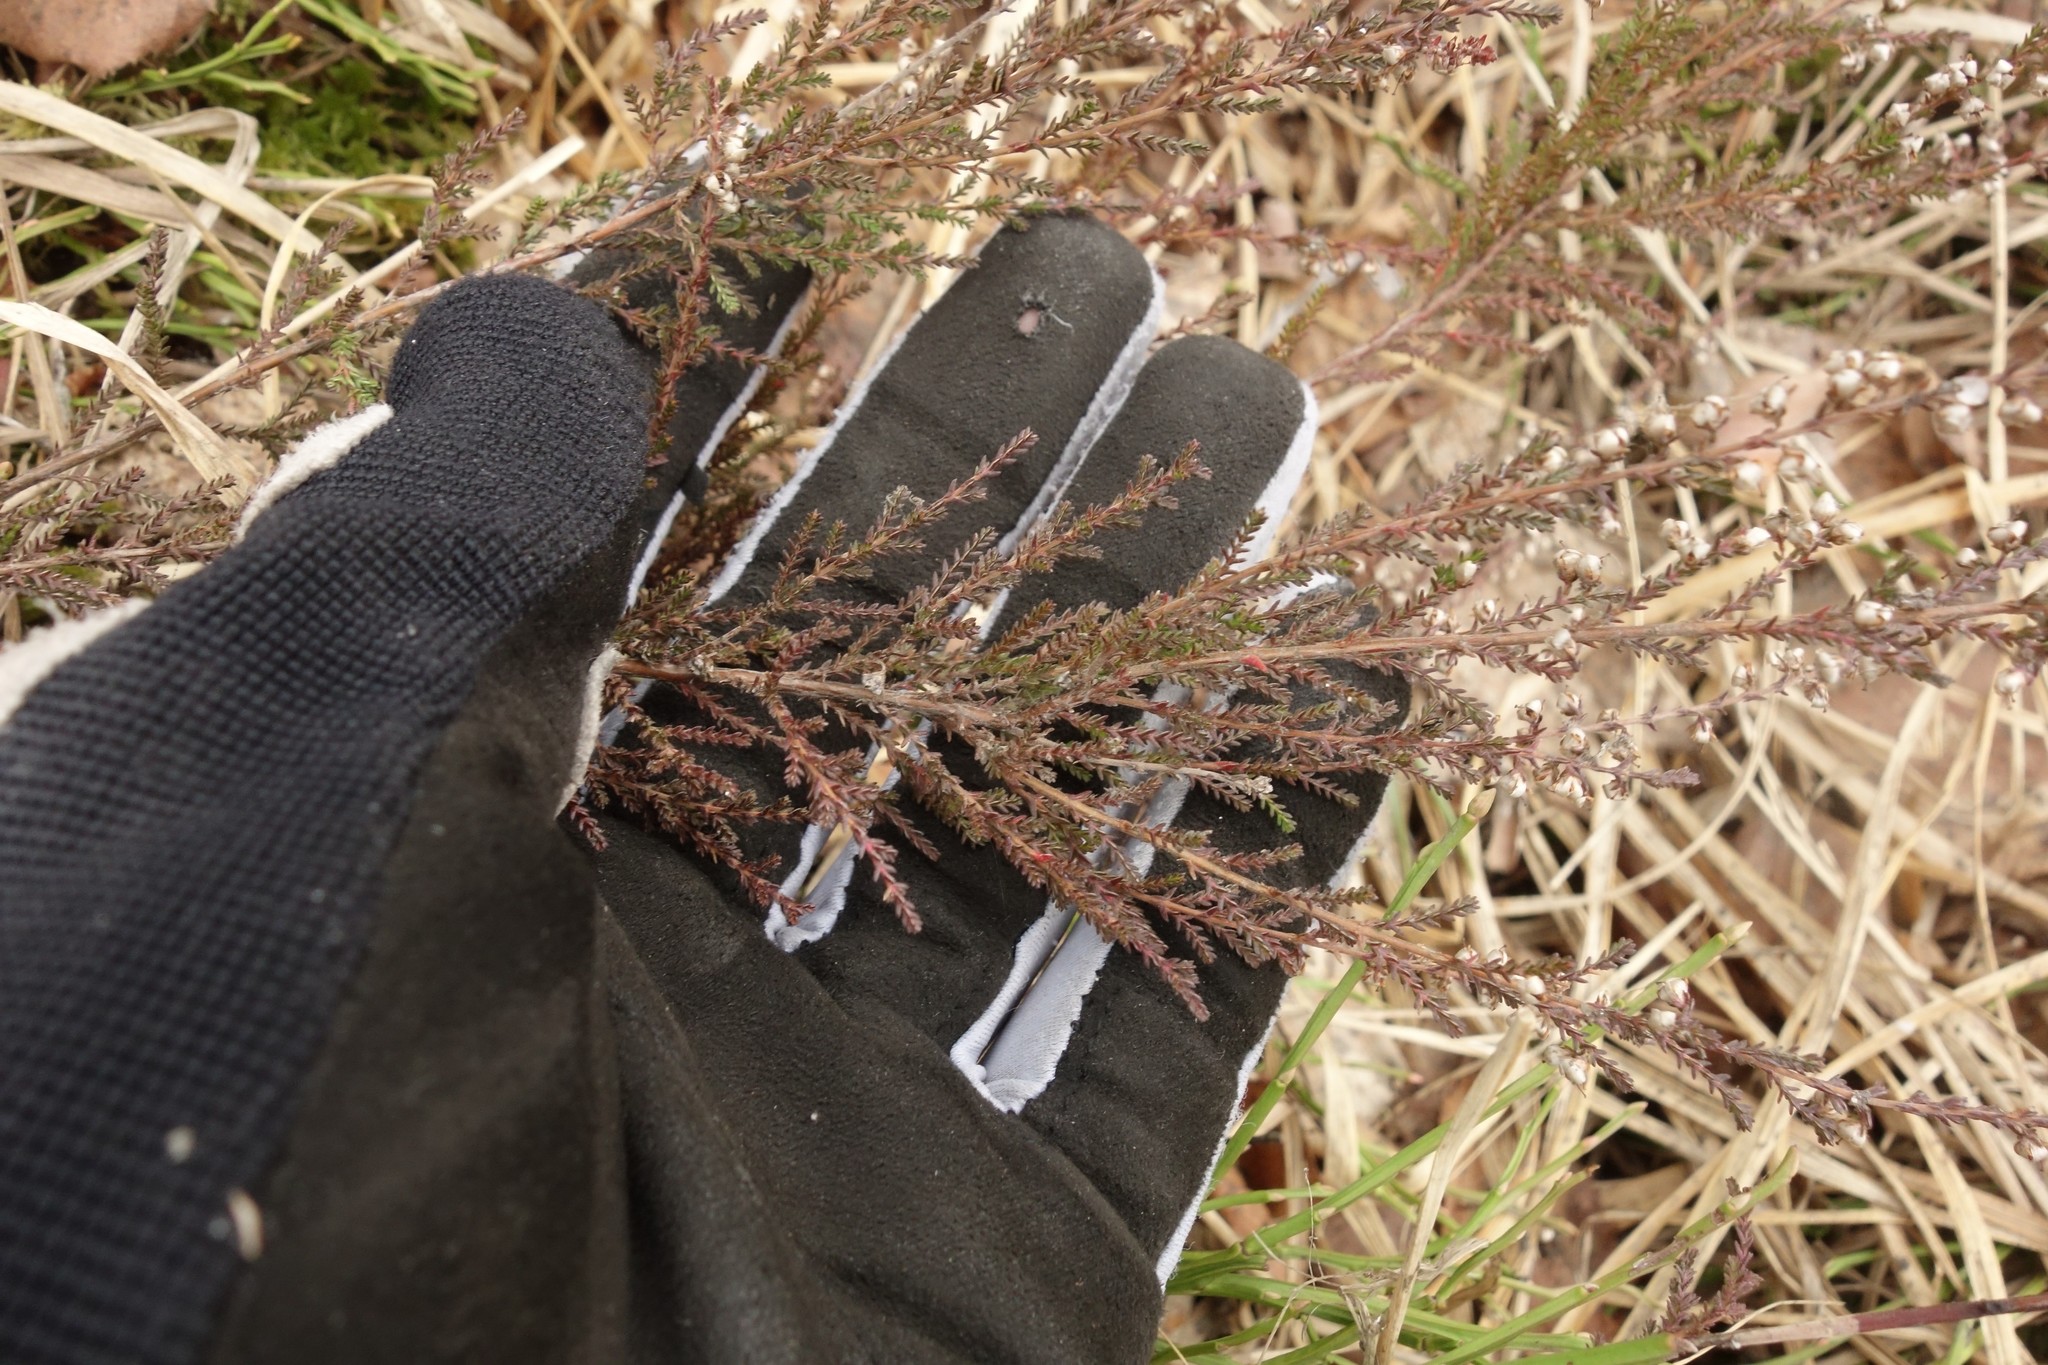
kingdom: Plantae
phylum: Tracheophyta
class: Magnoliopsida
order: Ericales
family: Ericaceae
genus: Calluna
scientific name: Calluna vulgaris
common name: Heather
